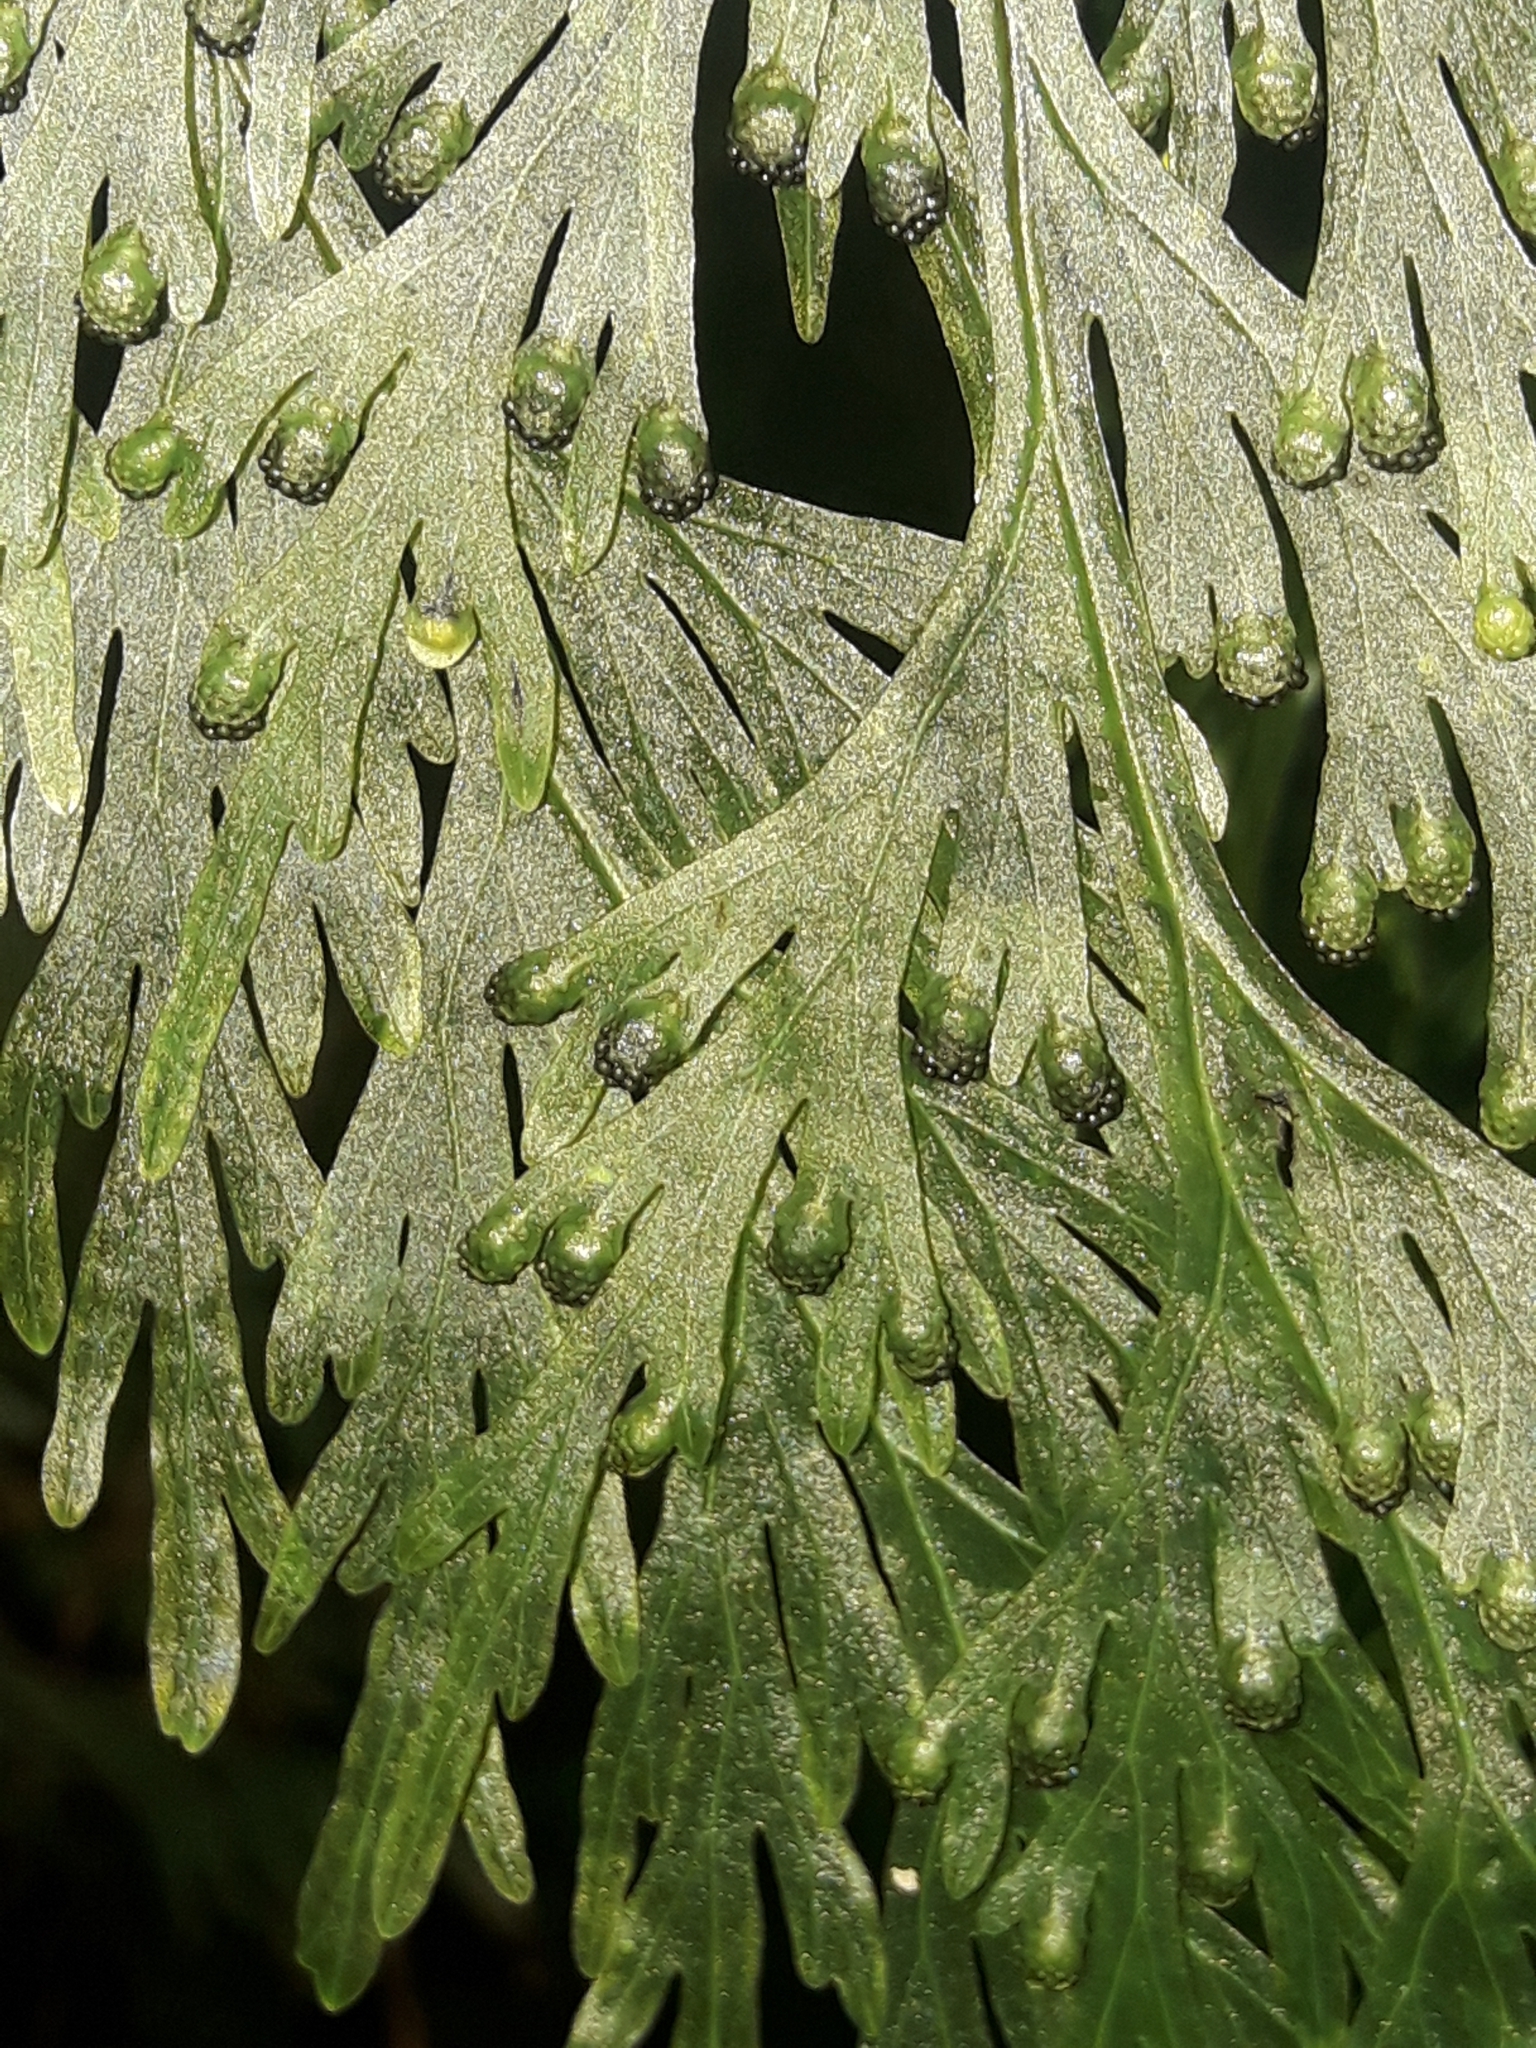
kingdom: Plantae
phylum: Tracheophyta
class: Polypodiopsida
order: Hymenophyllales
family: Hymenophyllaceae
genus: Hymenophyllum
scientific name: Hymenophyllum dilatatum
